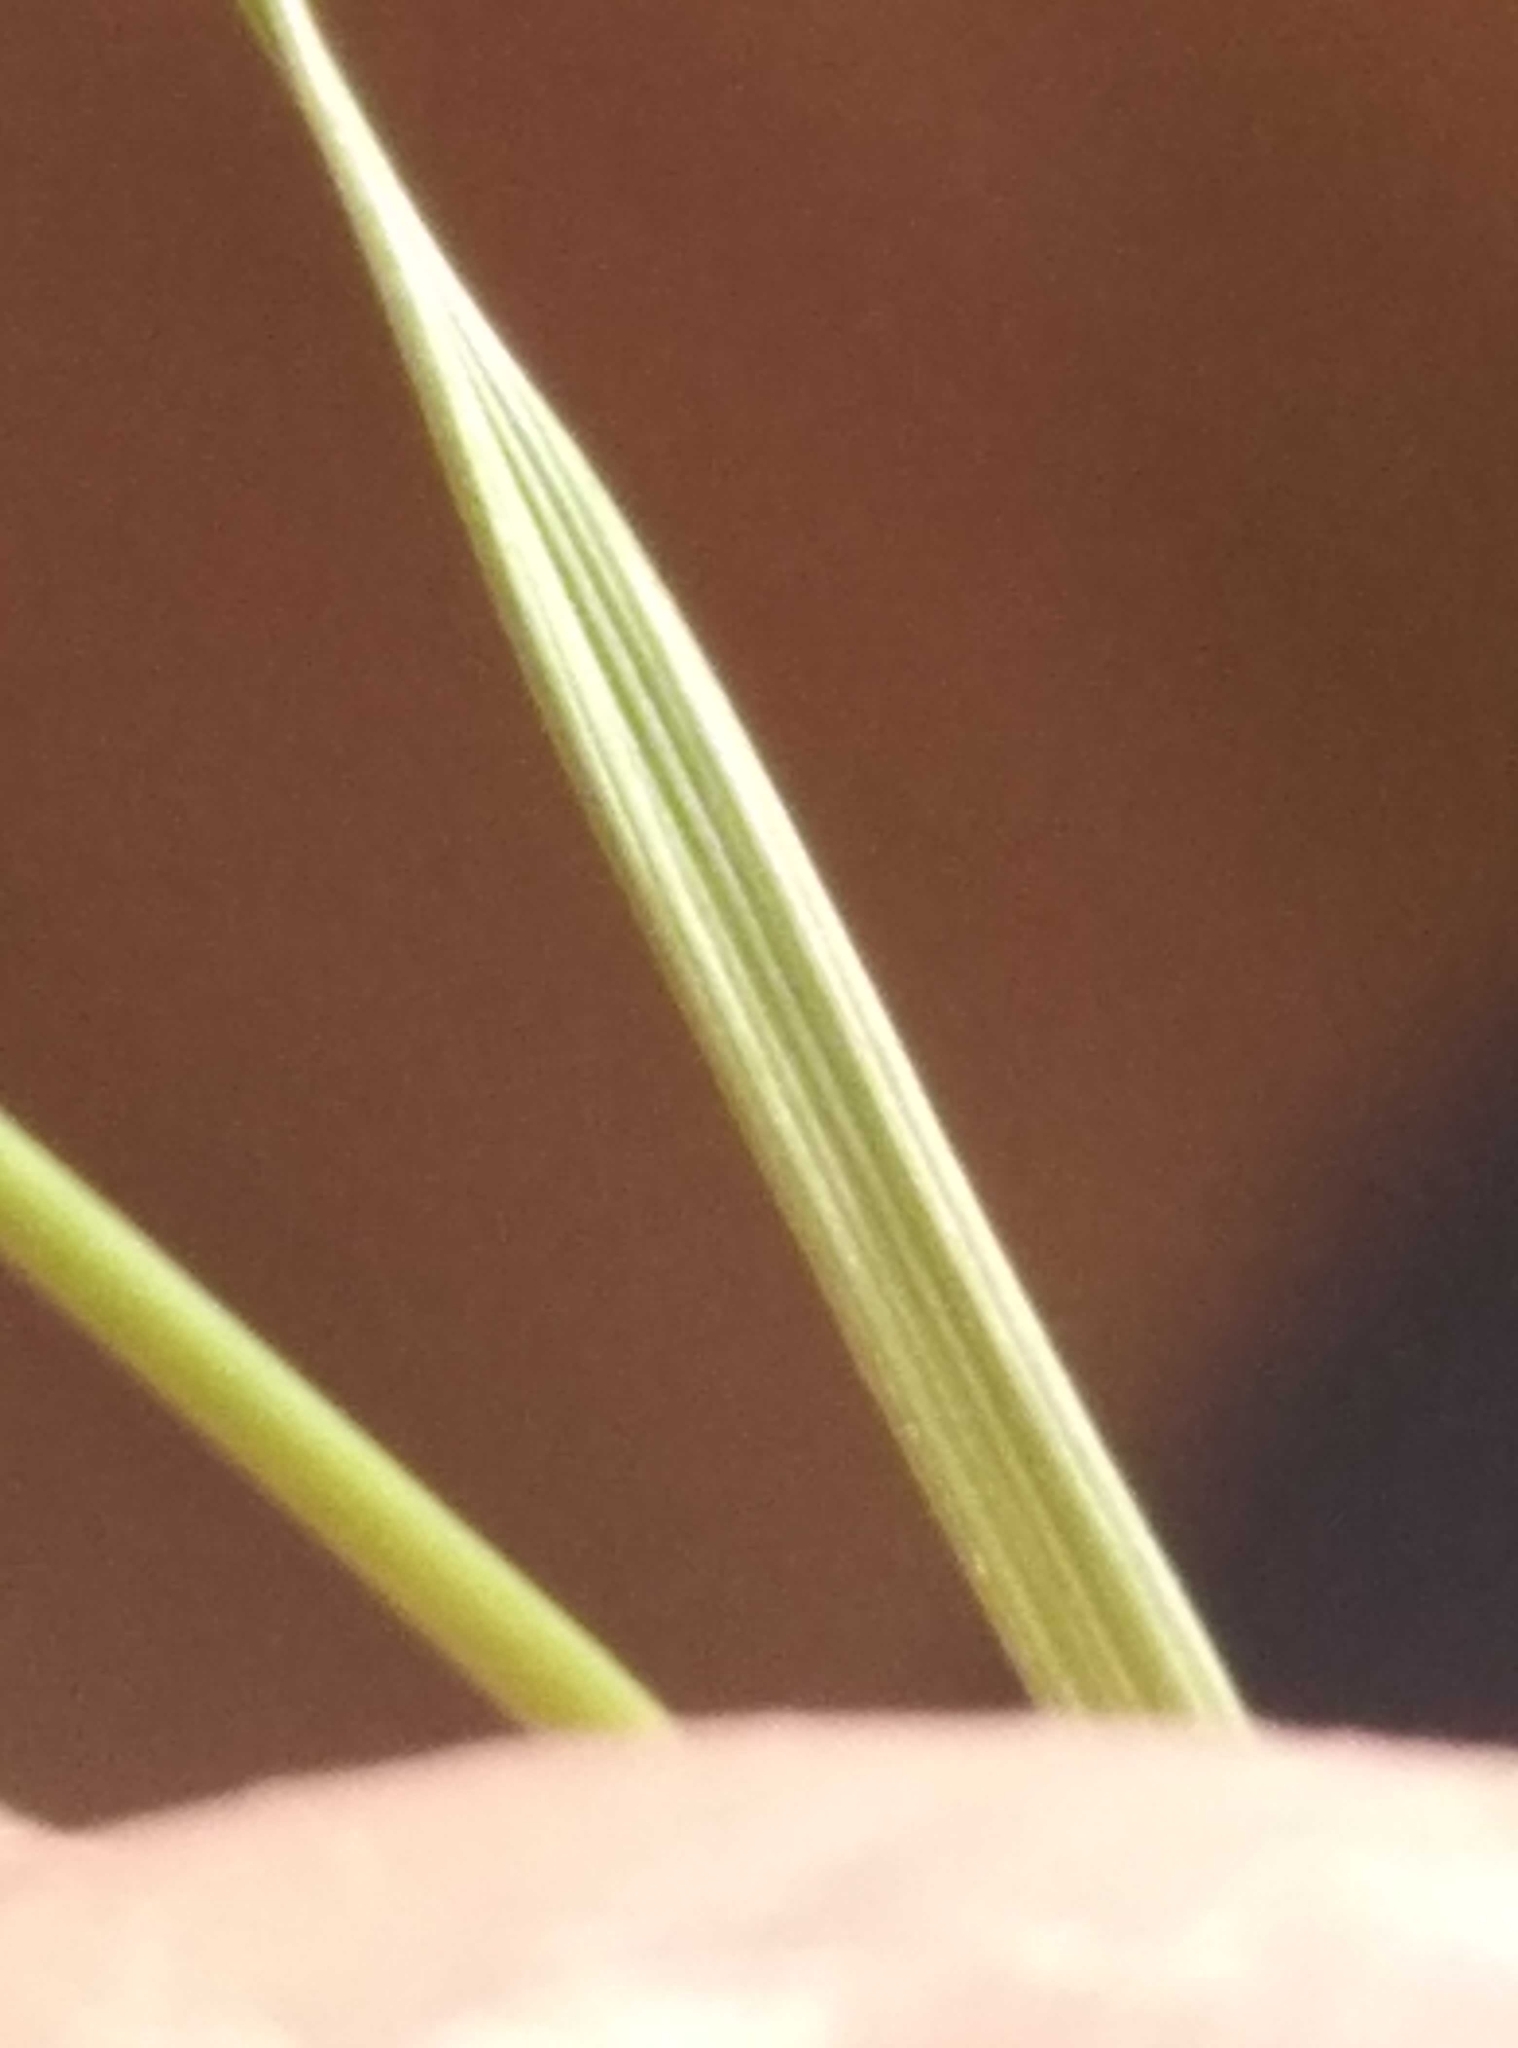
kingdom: Plantae
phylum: Tracheophyta
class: Liliopsida
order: Poales
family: Cyperaceae
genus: Carex
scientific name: Carex colensoi
